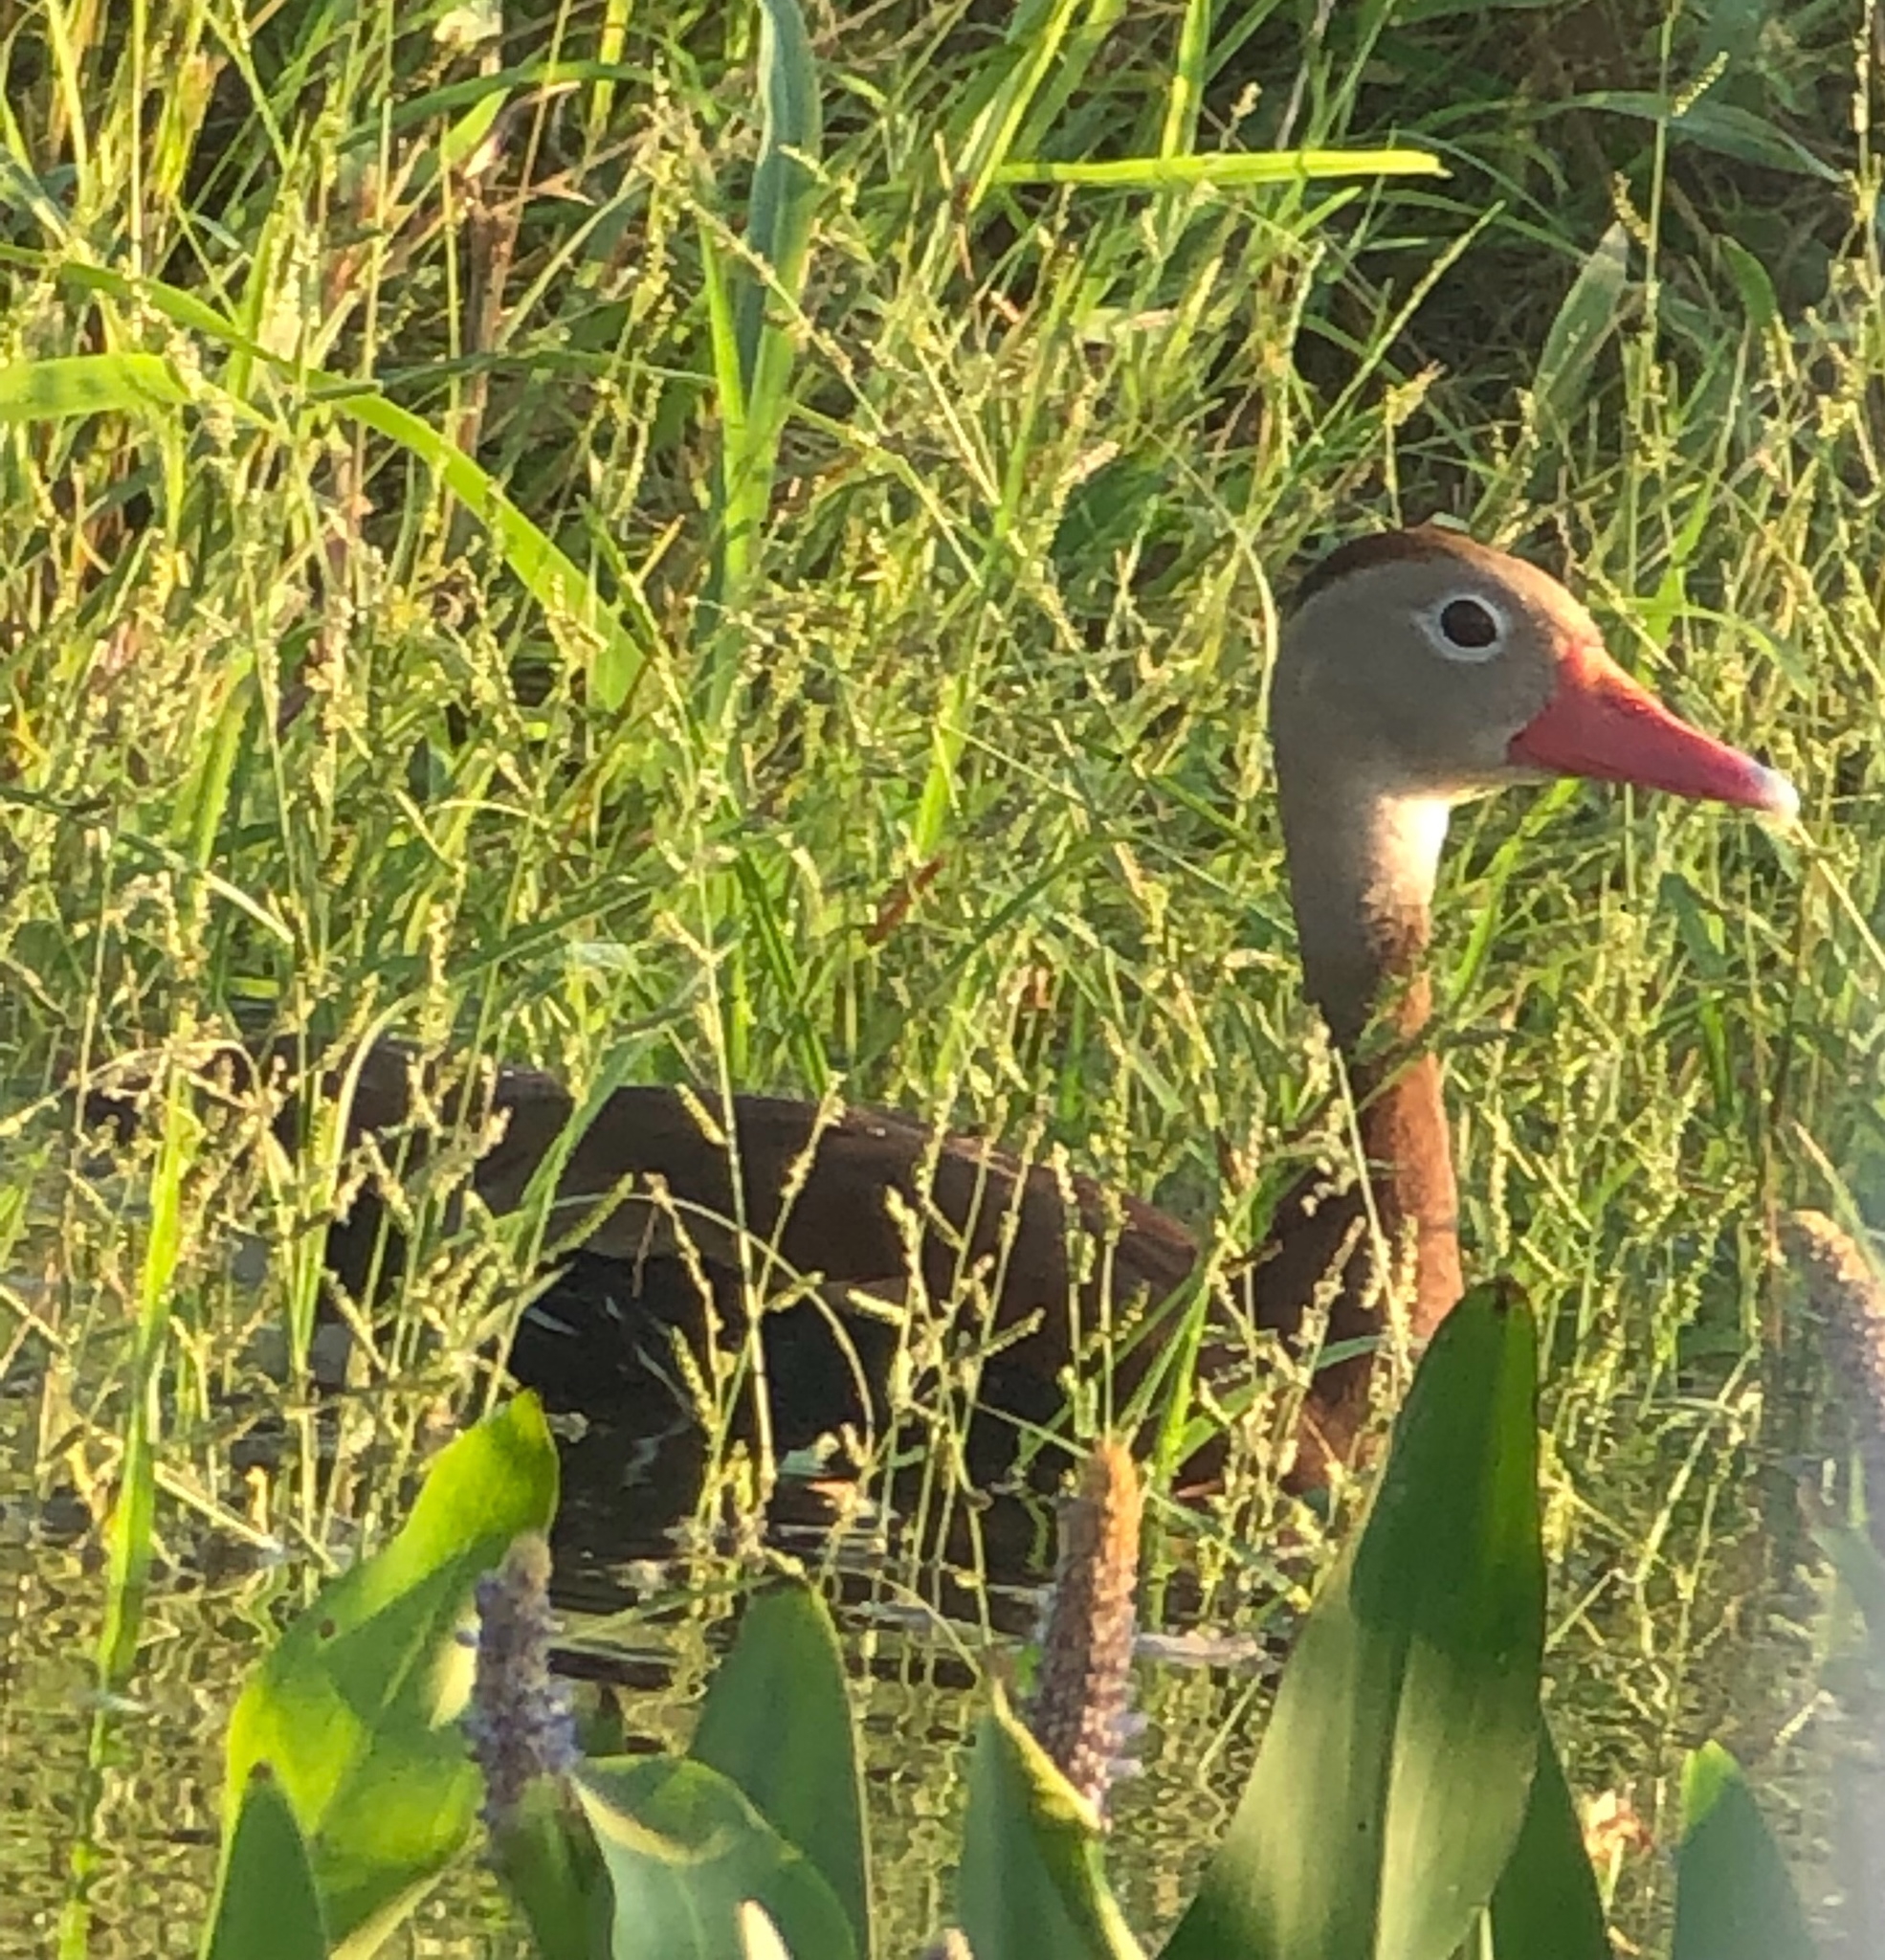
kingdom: Animalia
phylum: Chordata
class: Aves
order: Anseriformes
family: Anatidae
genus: Dendrocygna
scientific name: Dendrocygna autumnalis
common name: Black-bellied whistling duck
